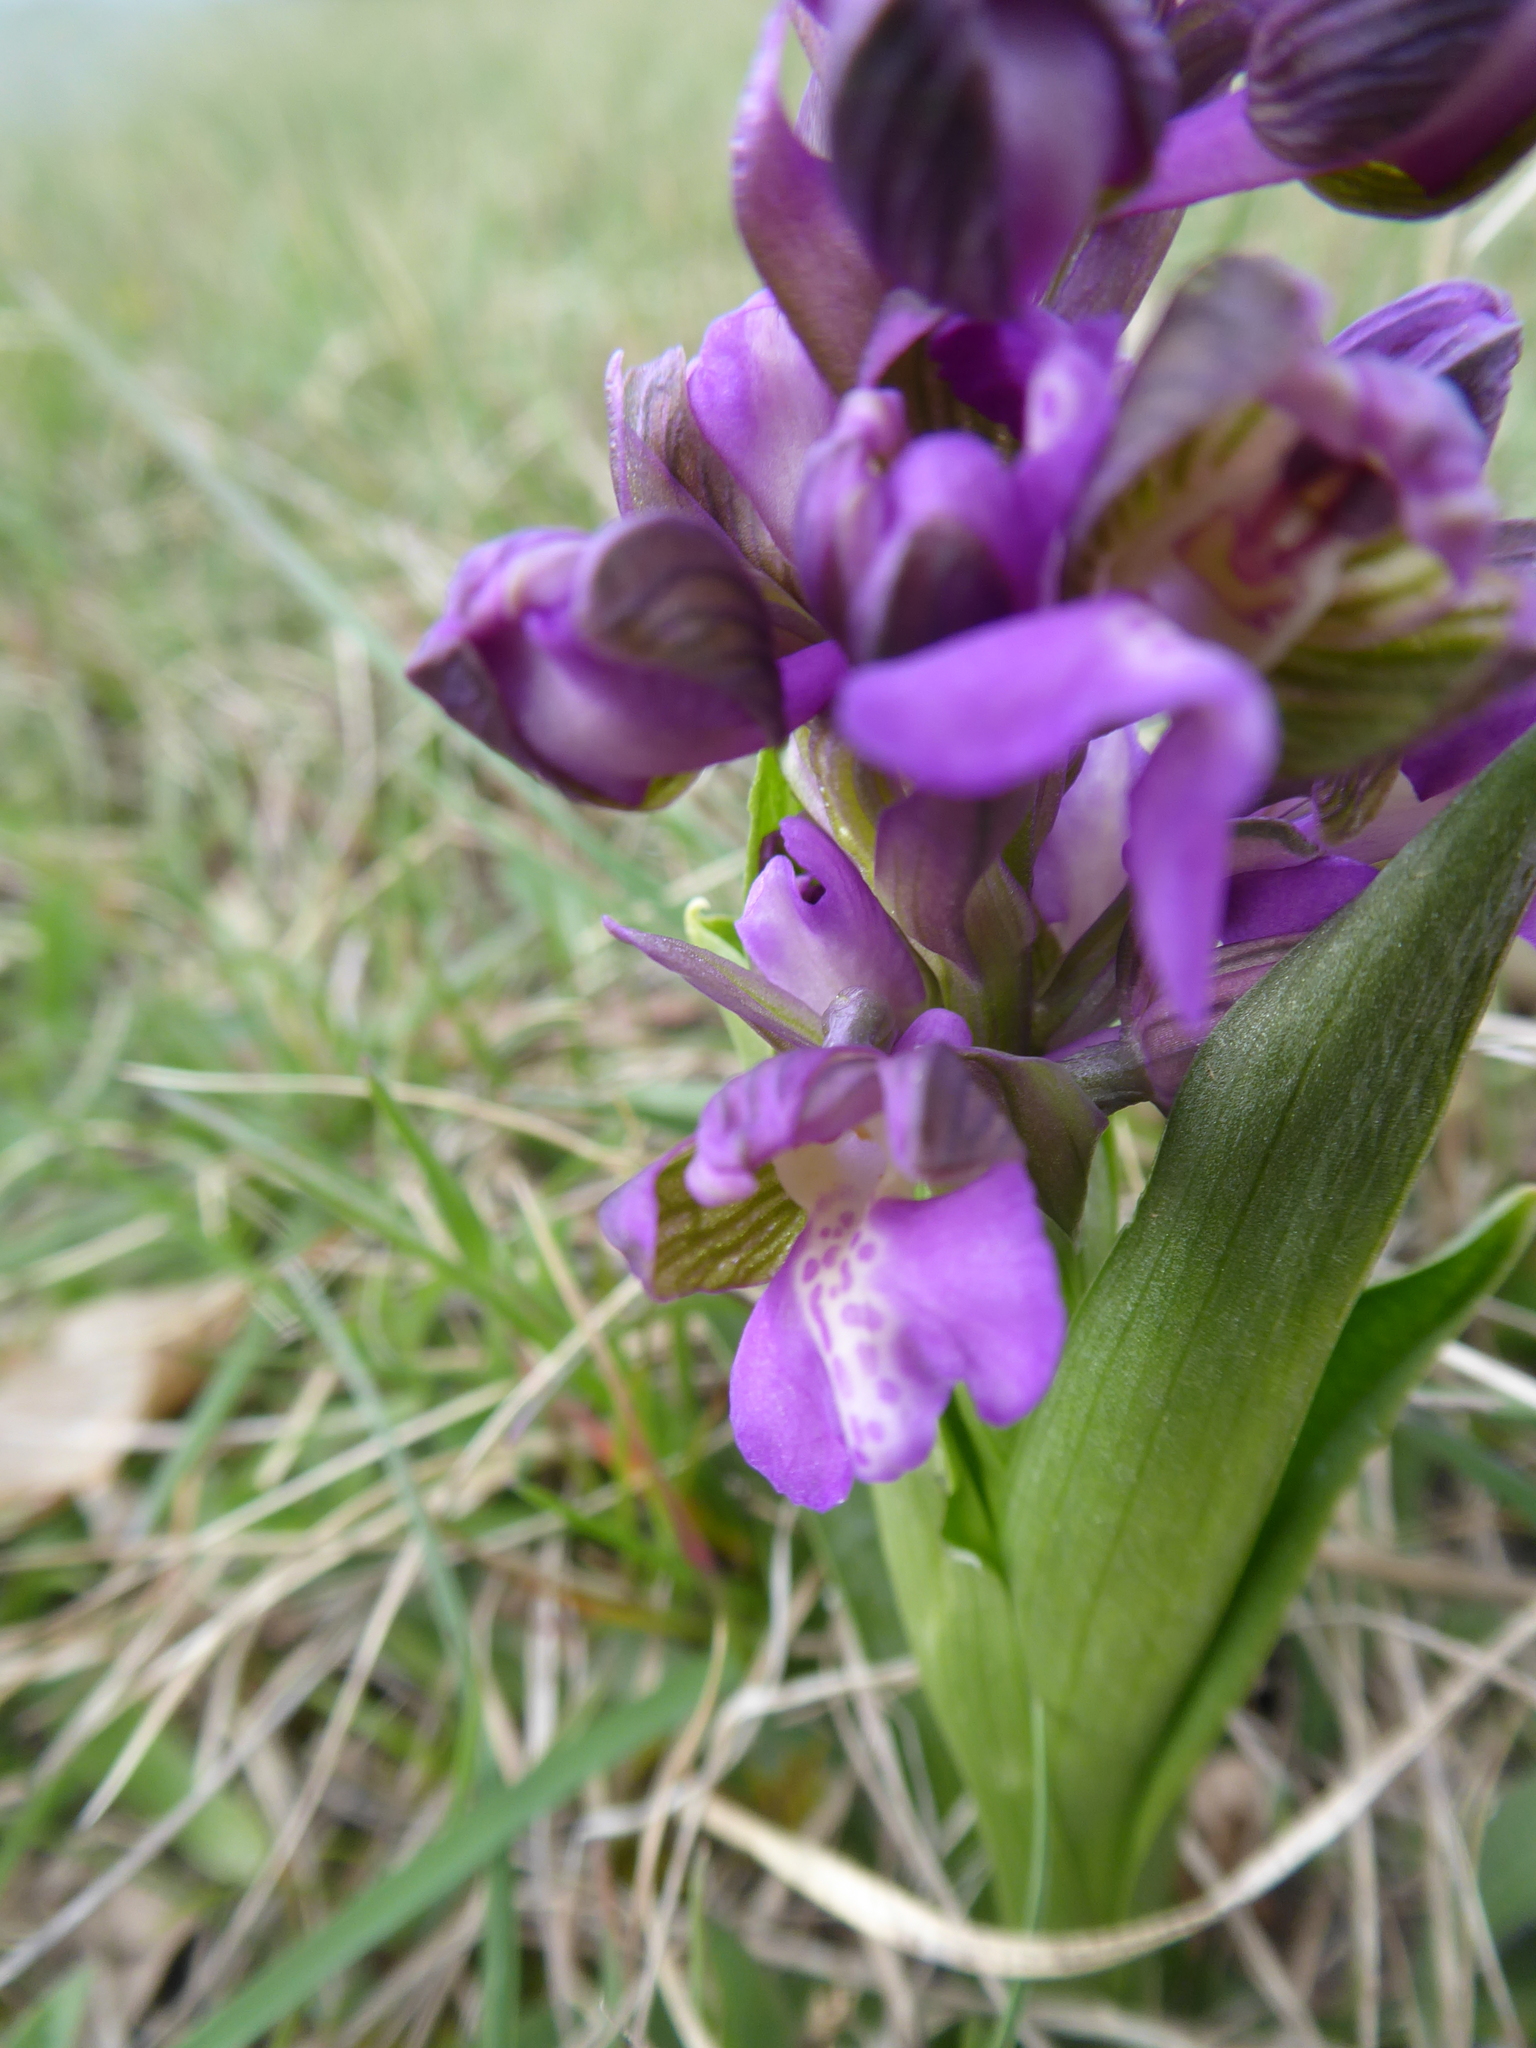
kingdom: Plantae
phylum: Tracheophyta
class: Liliopsida
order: Asparagales
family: Orchidaceae
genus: Anacamptis
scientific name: Anacamptis morio
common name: Green-winged orchid
